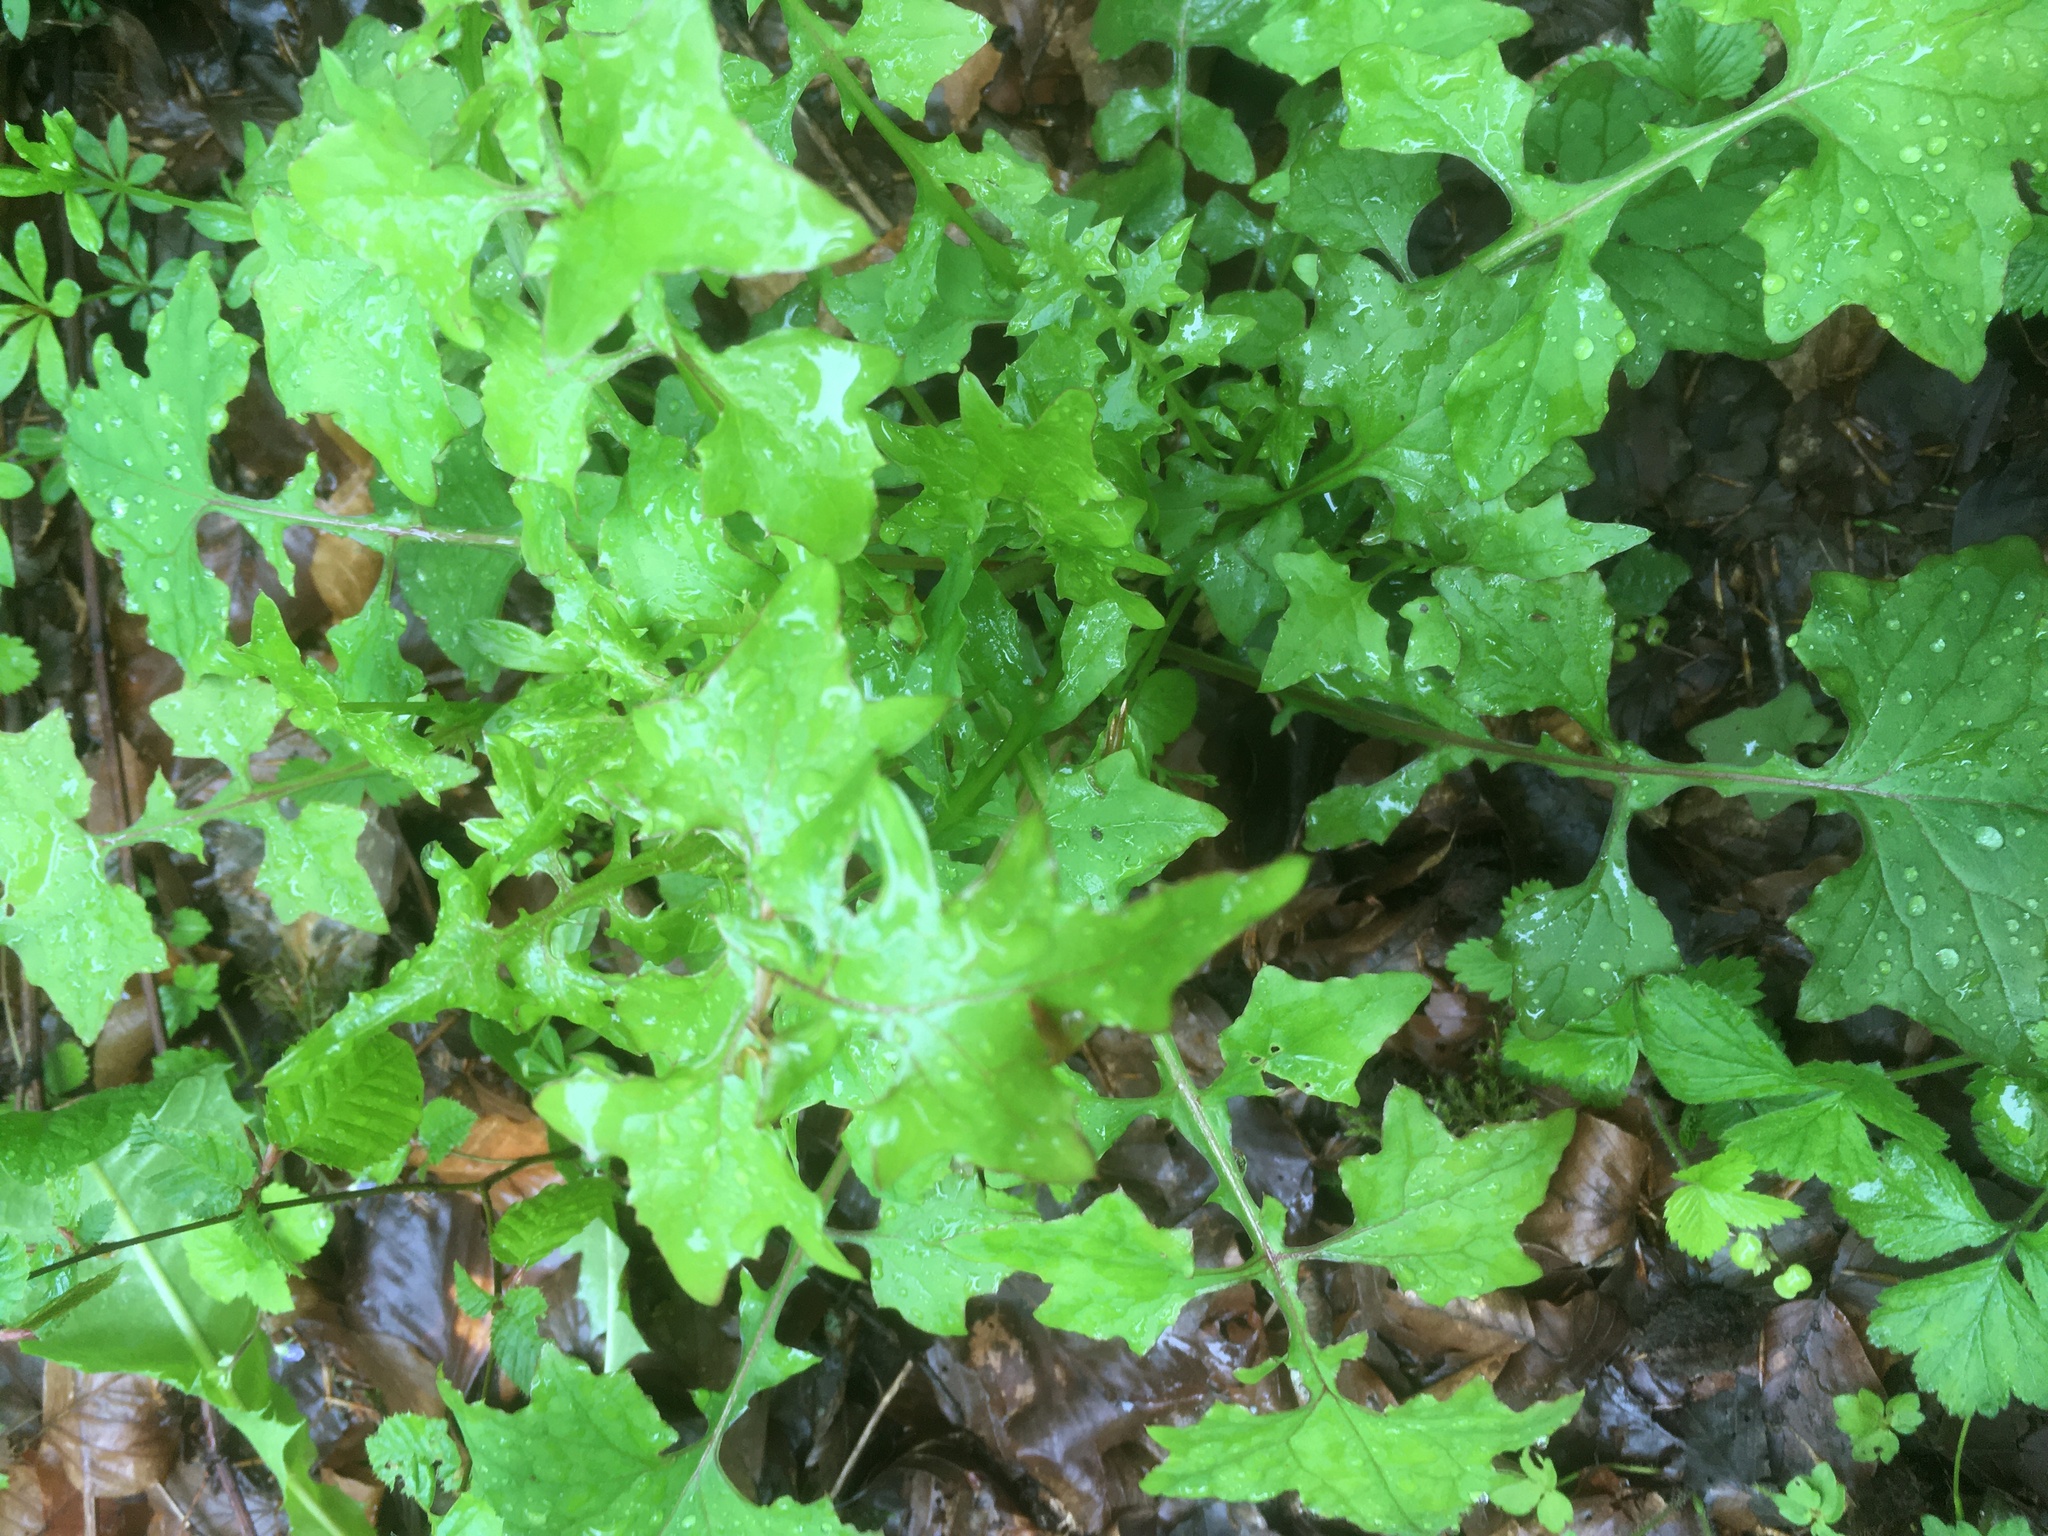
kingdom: Plantae
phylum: Tracheophyta
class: Magnoliopsida
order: Asterales
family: Asteraceae
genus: Mycelis
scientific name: Mycelis muralis
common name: Wall lettuce
